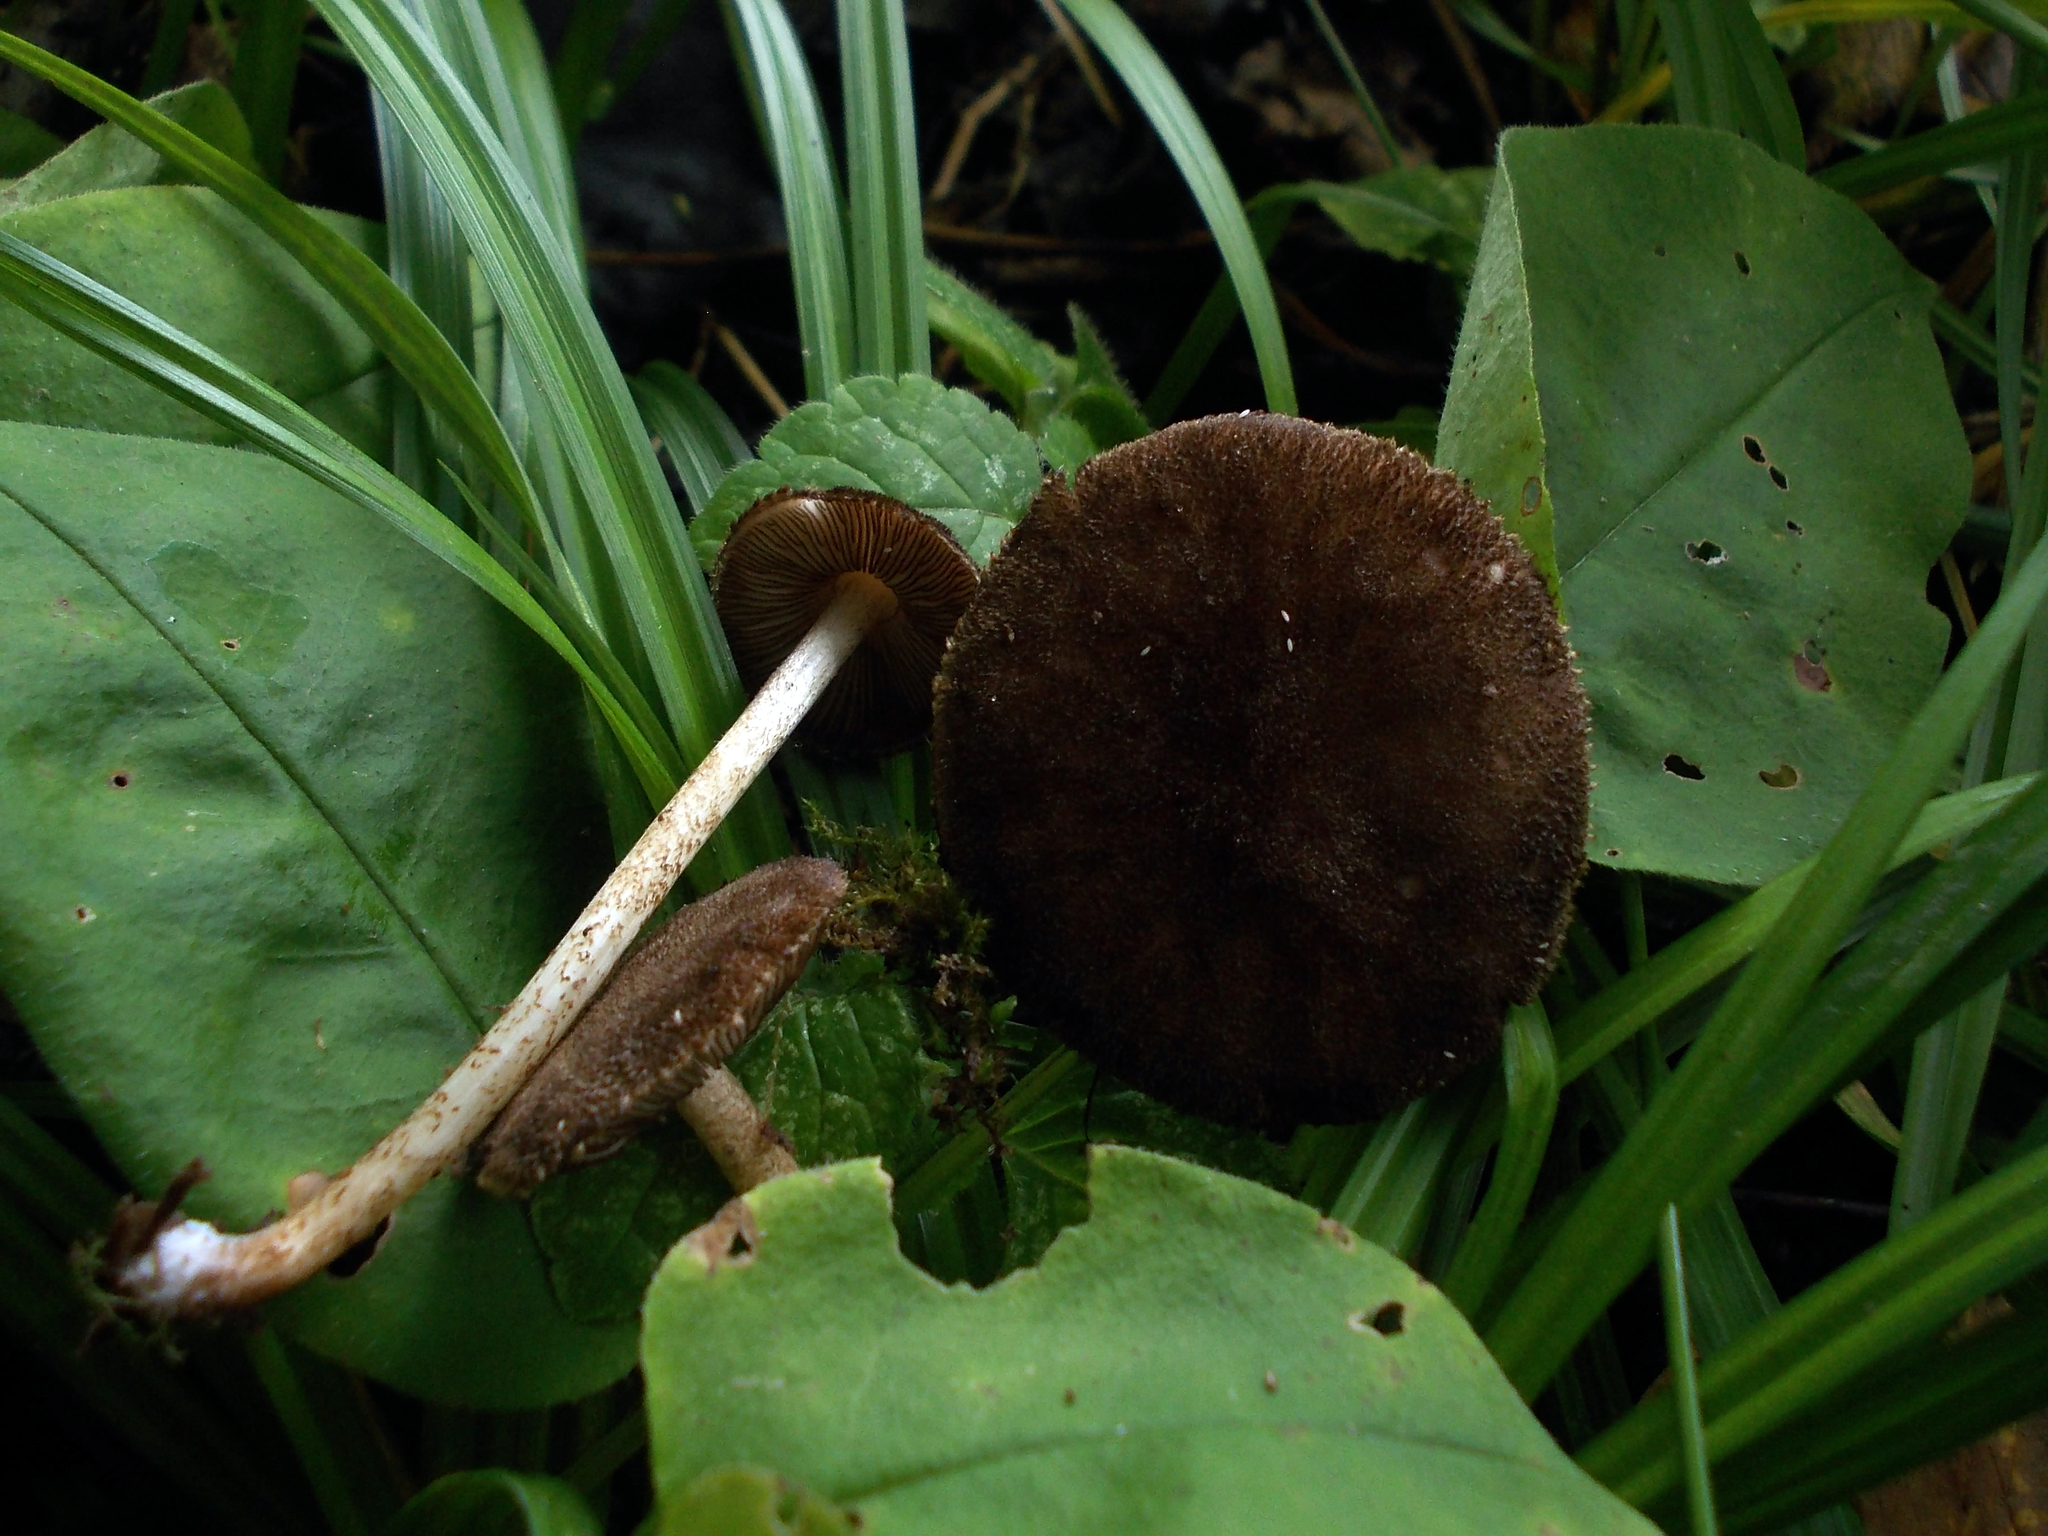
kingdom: Fungi
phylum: Basidiomycota
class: Agaricomycetes
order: Agaricales
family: Pluteaceae
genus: Pluteus
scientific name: Pluteus umbrosus
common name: Velvet shield
